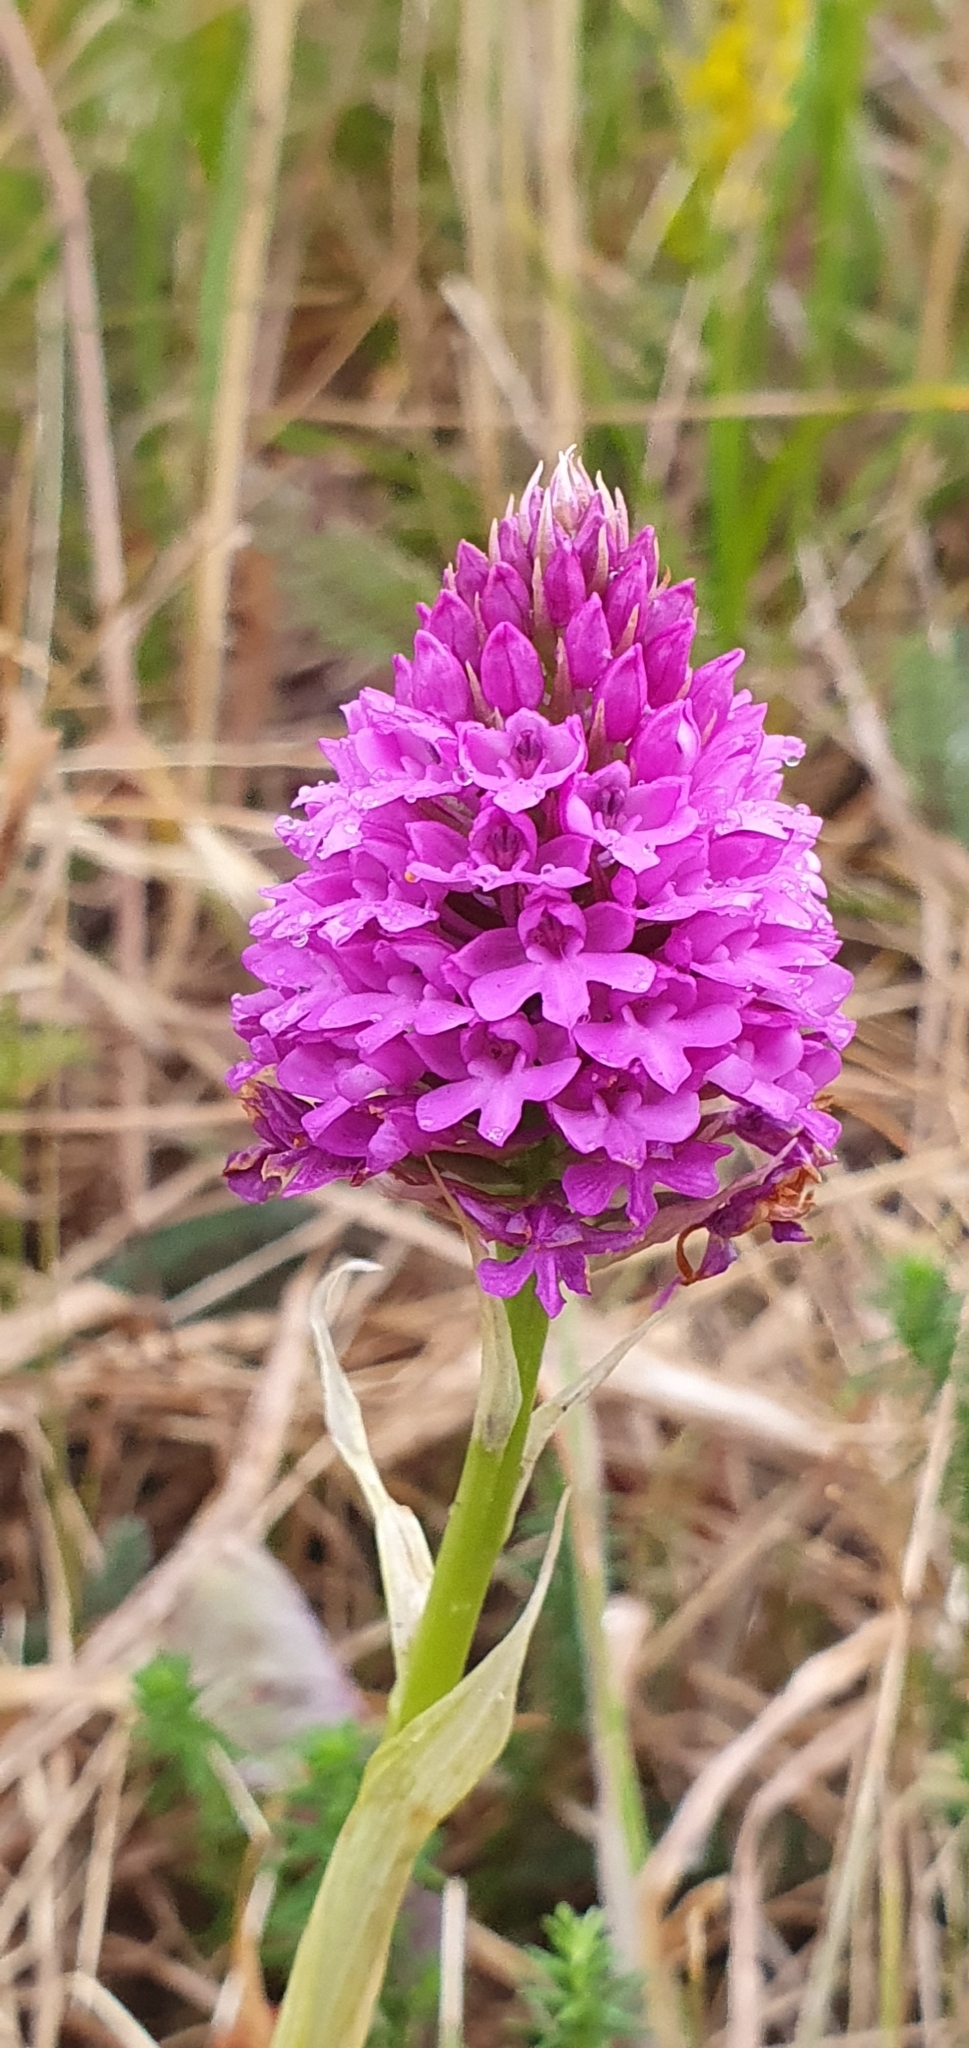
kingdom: Plantae
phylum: Tracheophyta
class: Liliopsida
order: Asparagales
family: Orchidaceae
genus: Anacamptis
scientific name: Anacamptis pyramidalis
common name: Pyramidal orchid
